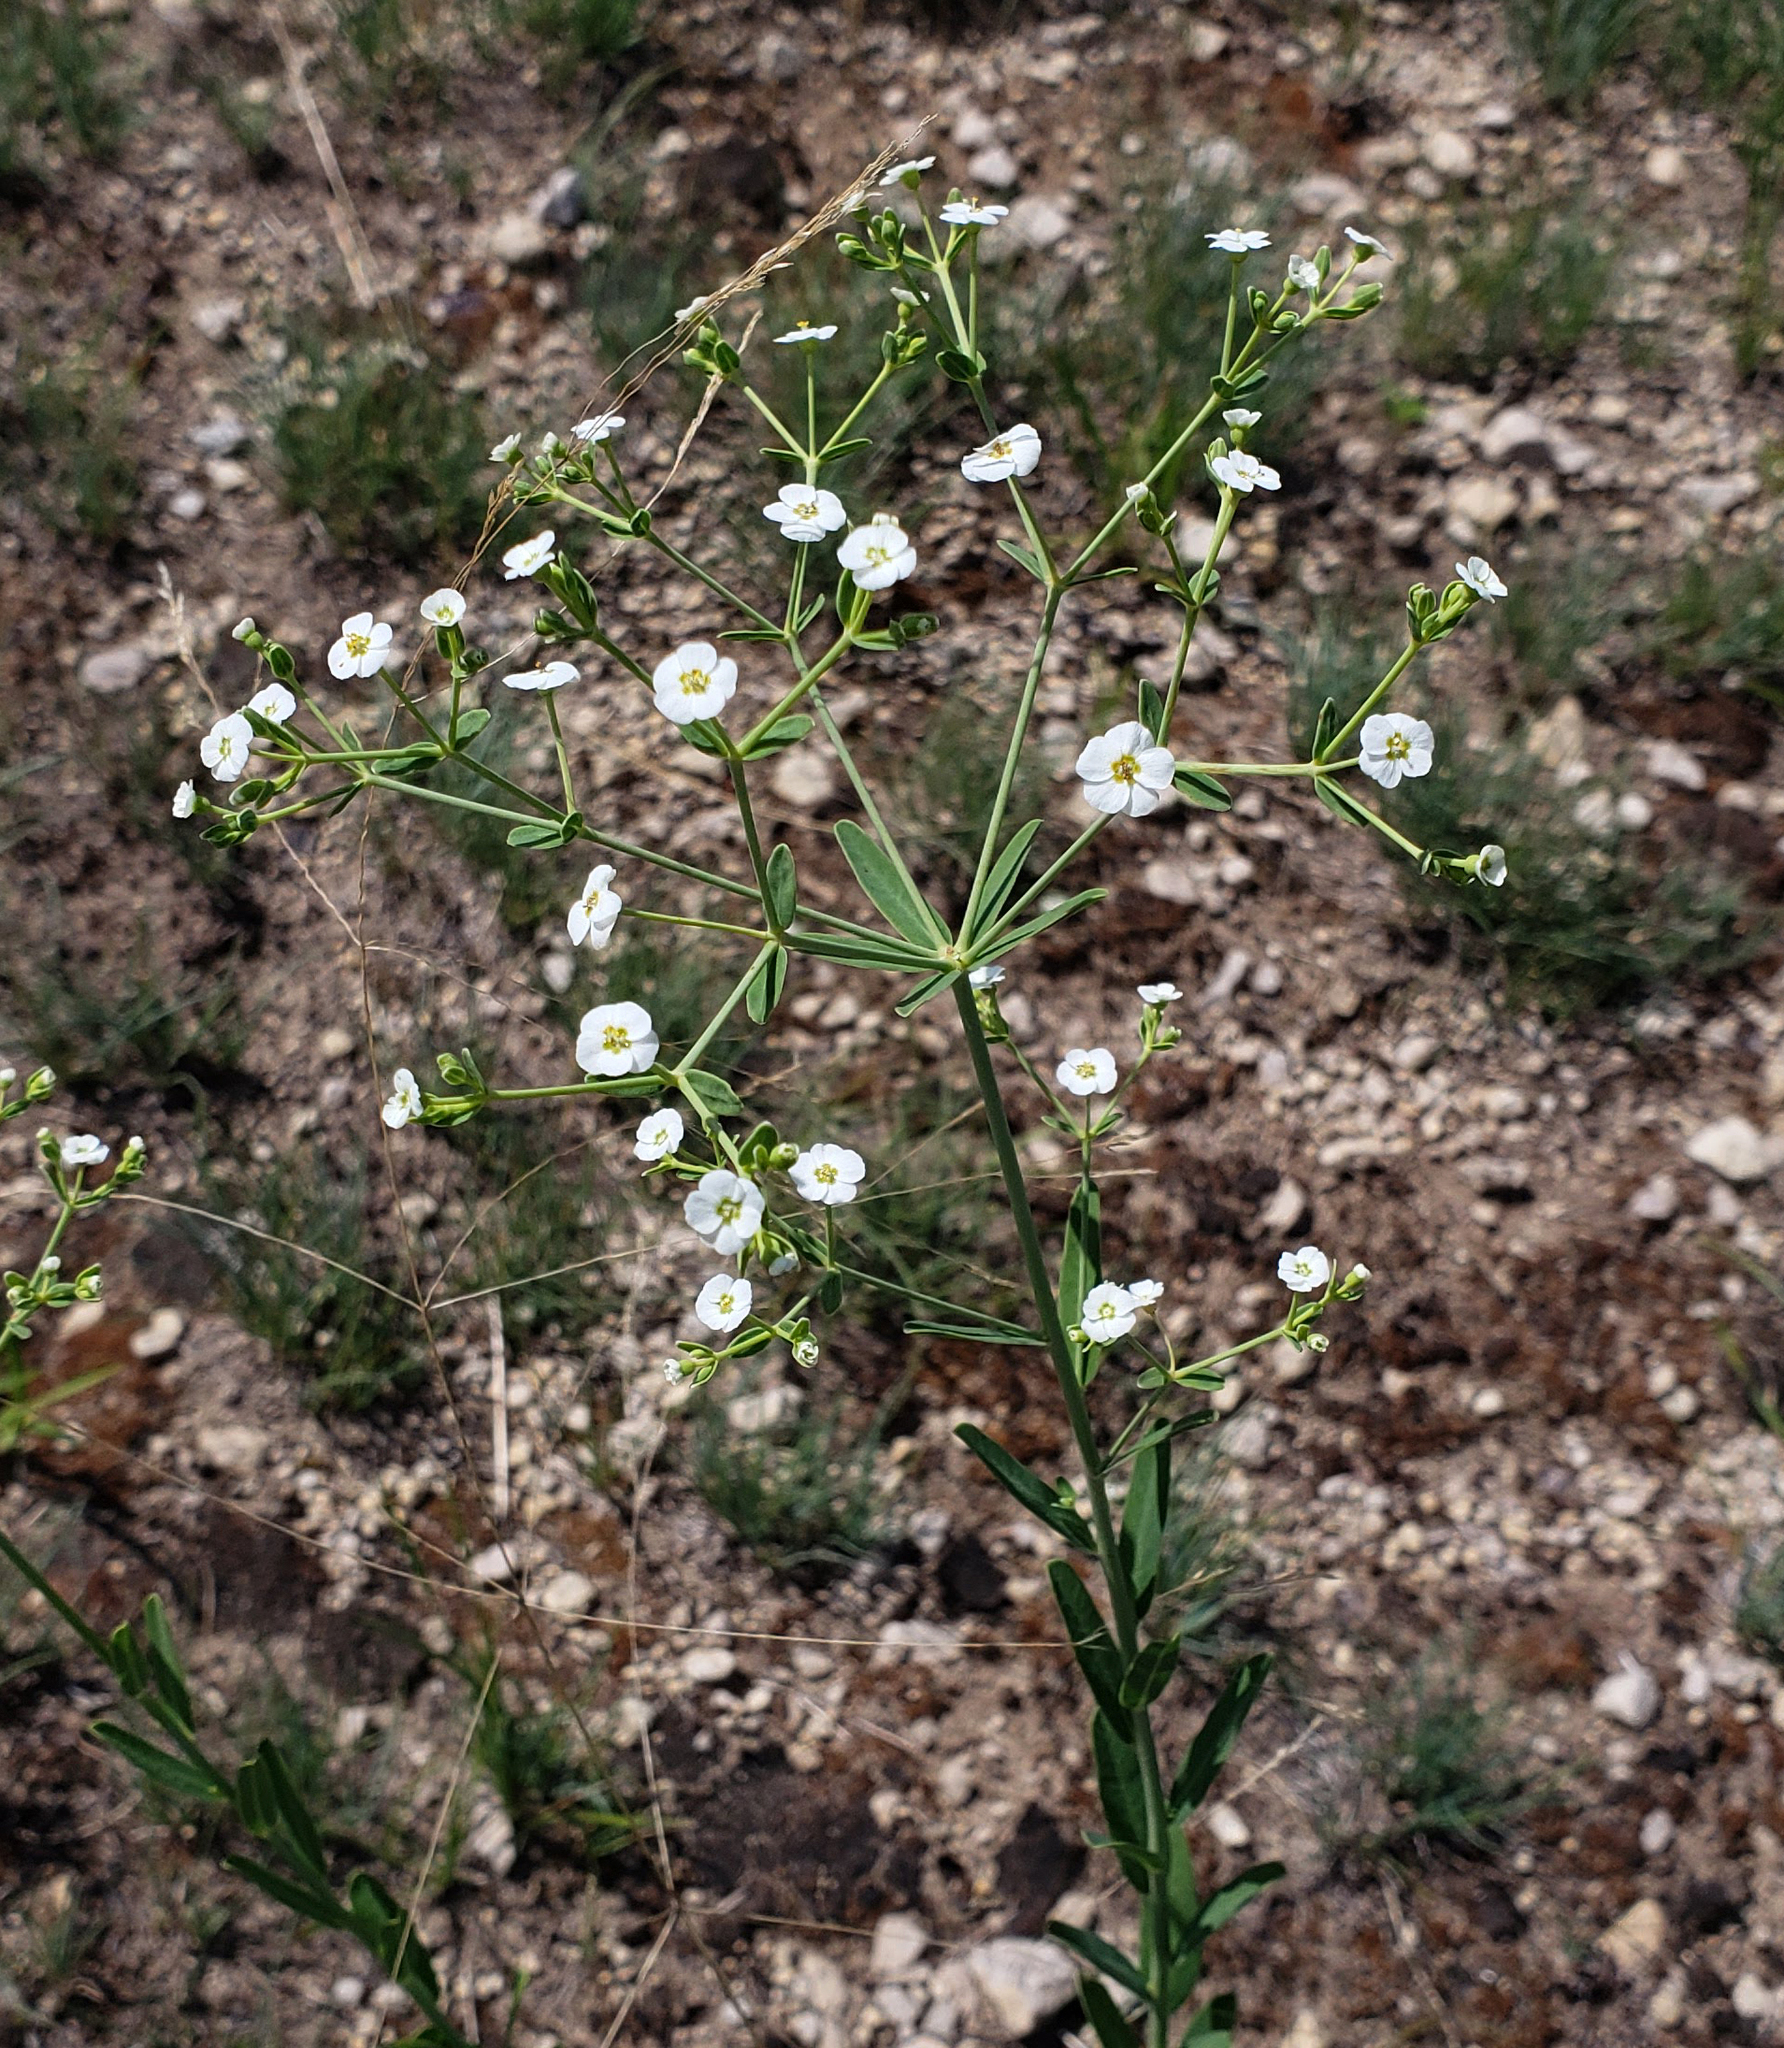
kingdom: Plantae
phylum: Tracheophyta
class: Magnoliopsida
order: Malpighiales
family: Euphorbiaceae
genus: Euphorbia
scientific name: Euphorbia corollata
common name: Flowering spurge
